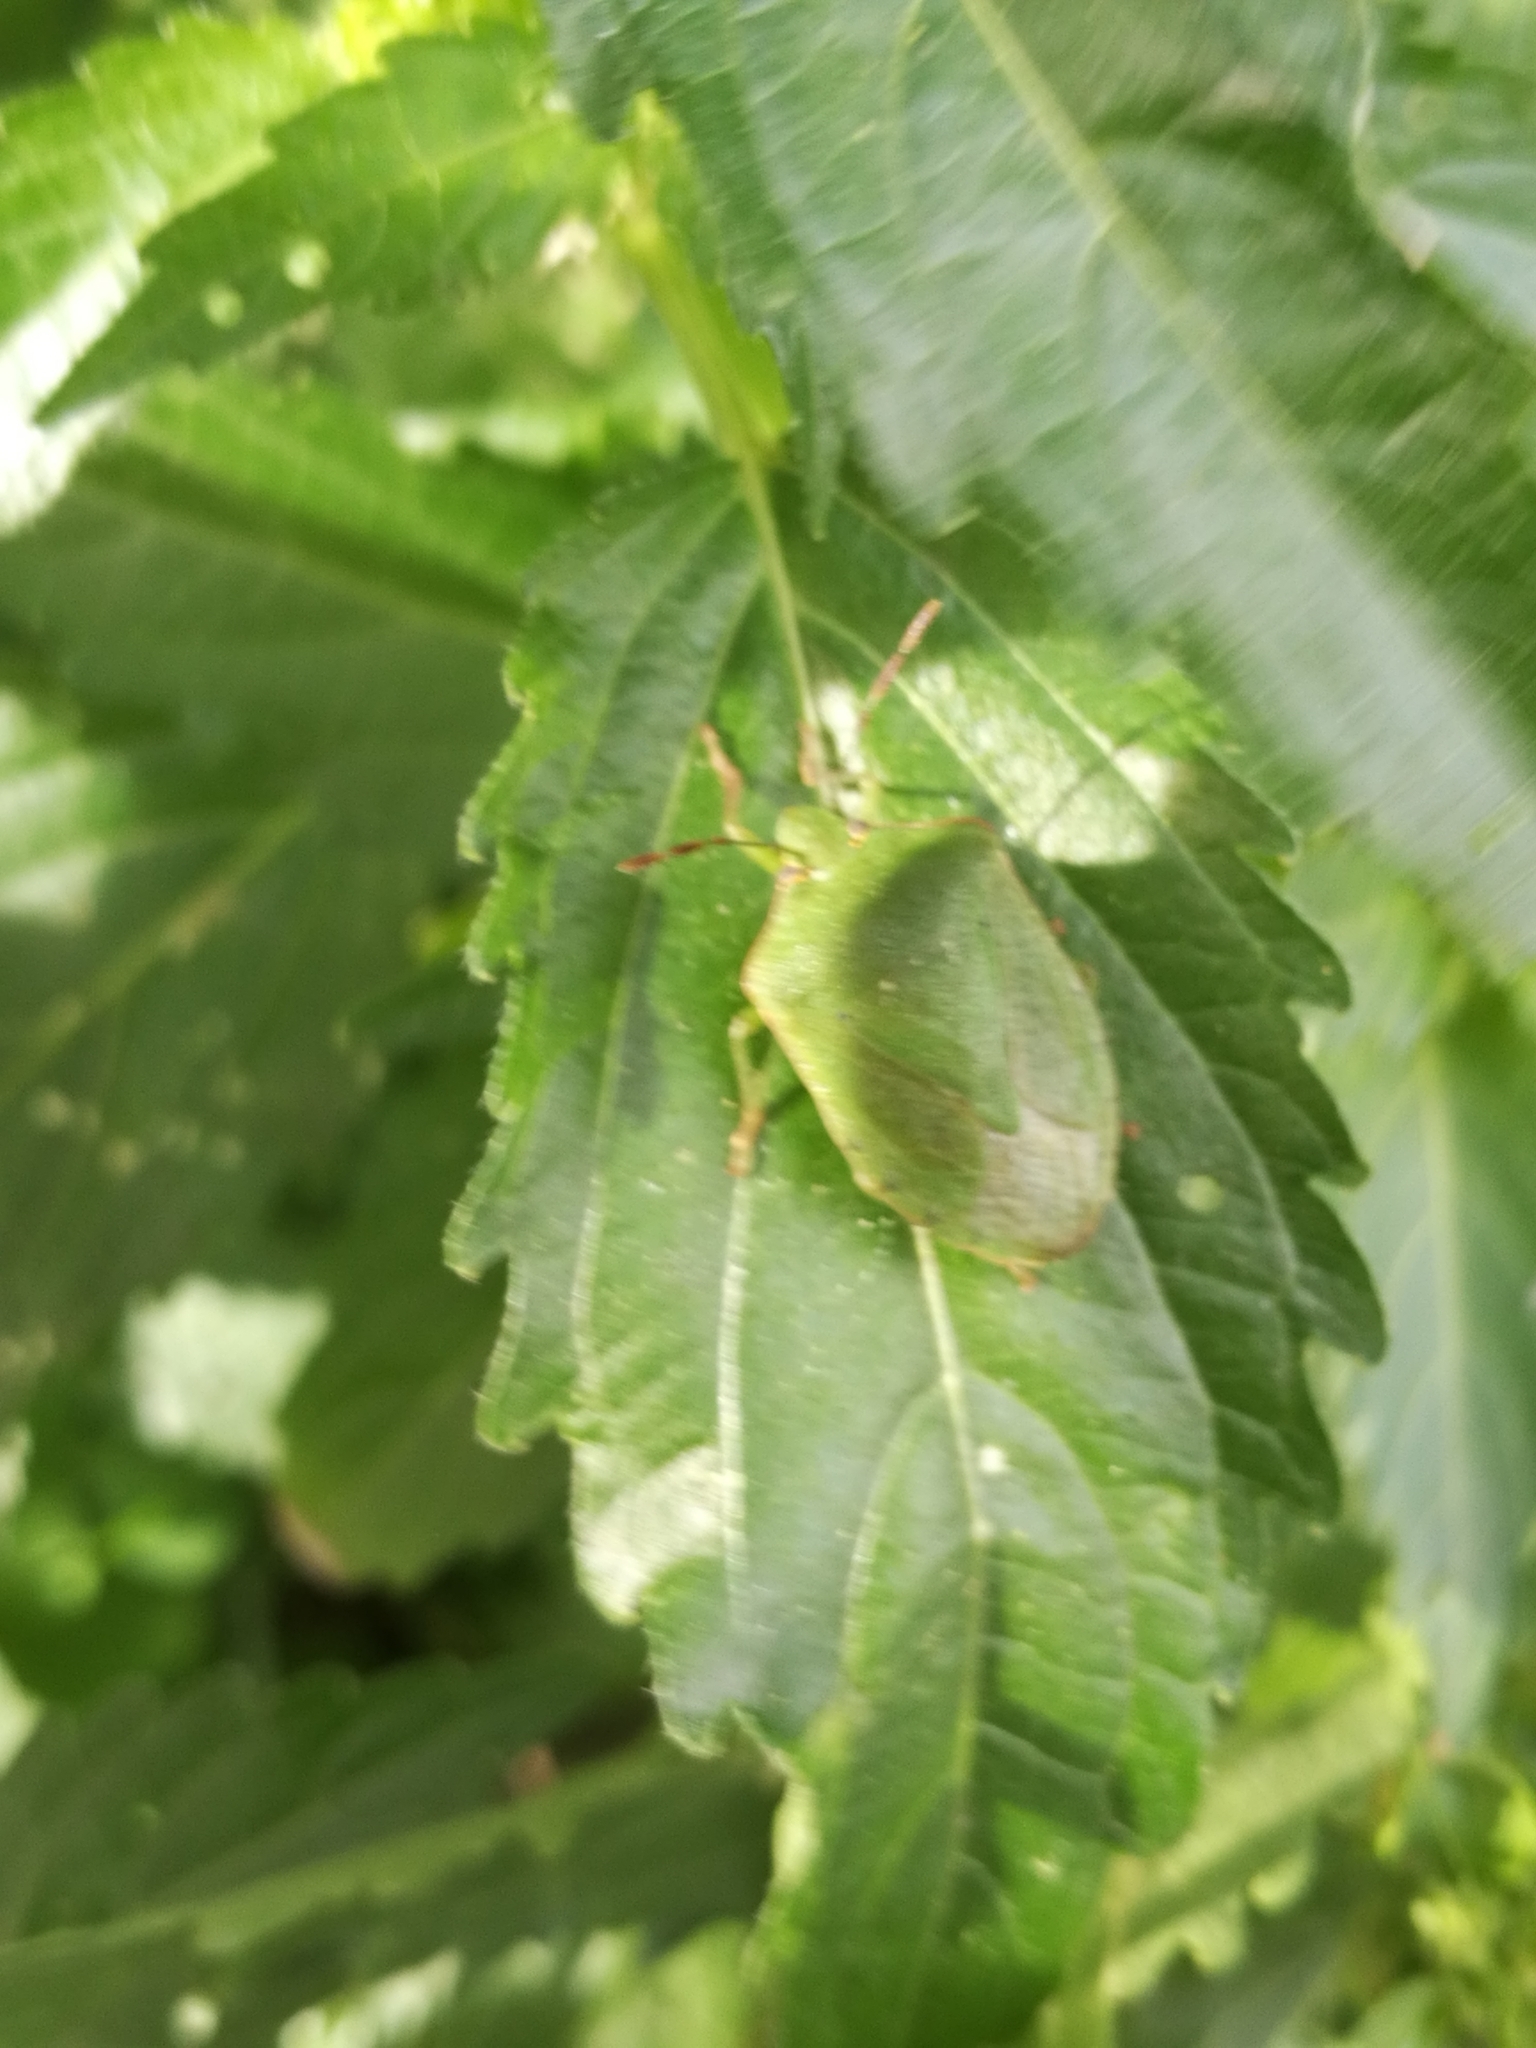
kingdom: Animalia
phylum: Arthropoda
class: Insecta
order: Hemiptera
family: Pentatomidae
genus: Nezara
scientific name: Nezara viridula
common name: Southern green stink bug
